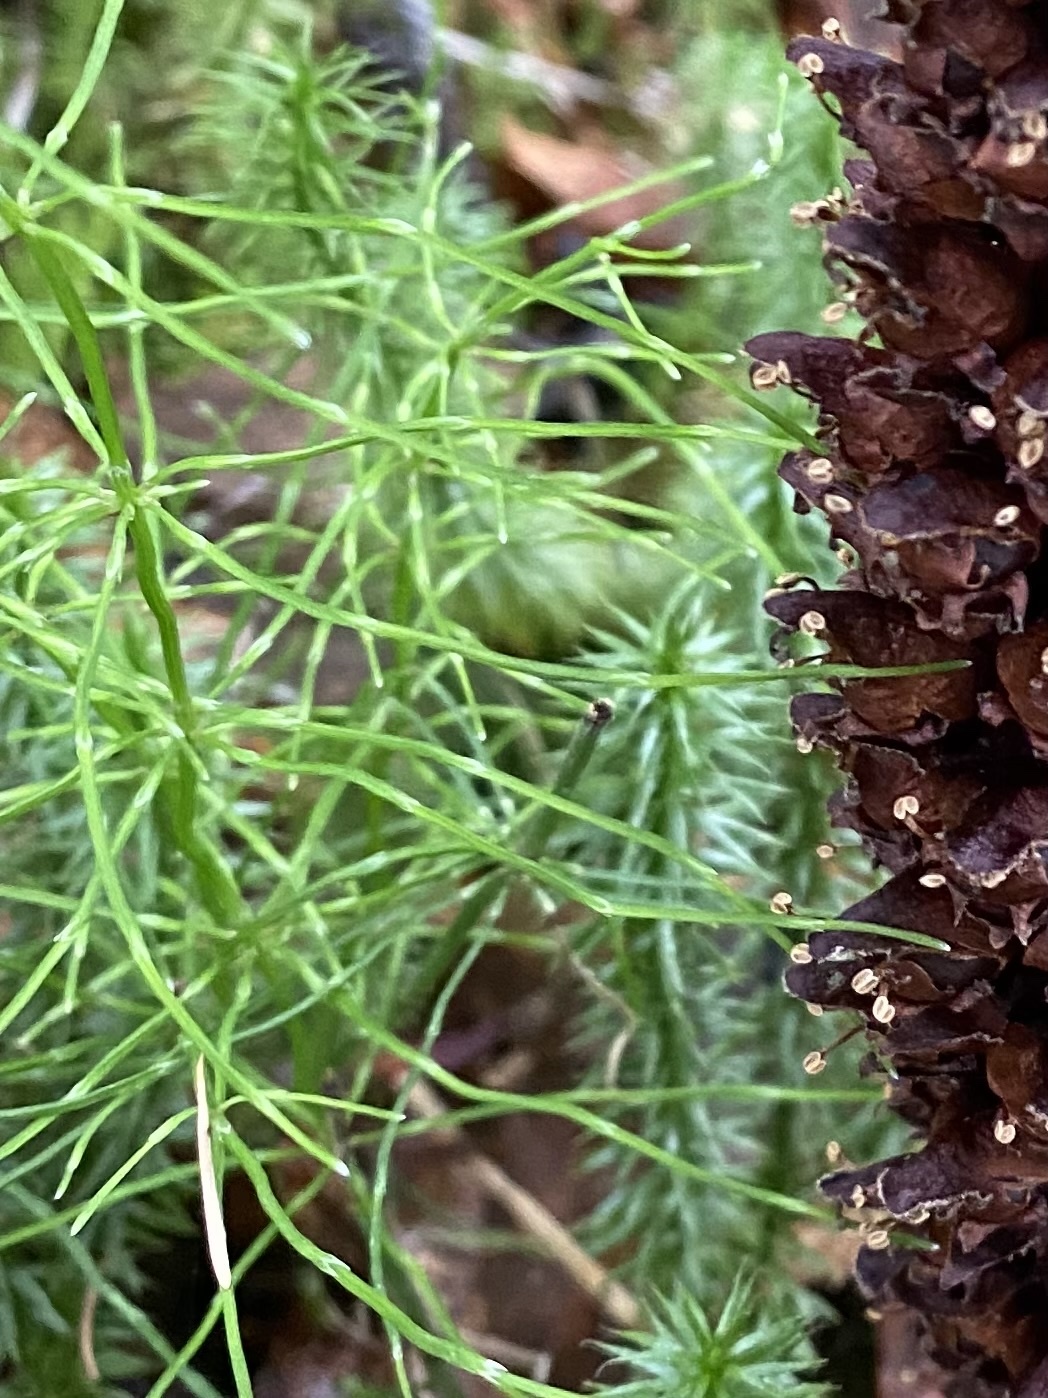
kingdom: Plantae
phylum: Tracheophyta
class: Polypodiopsida
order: Equisetales
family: Equisetaceae
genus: Equisetum
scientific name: Equisetum pratense
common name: Meadow horsetail
